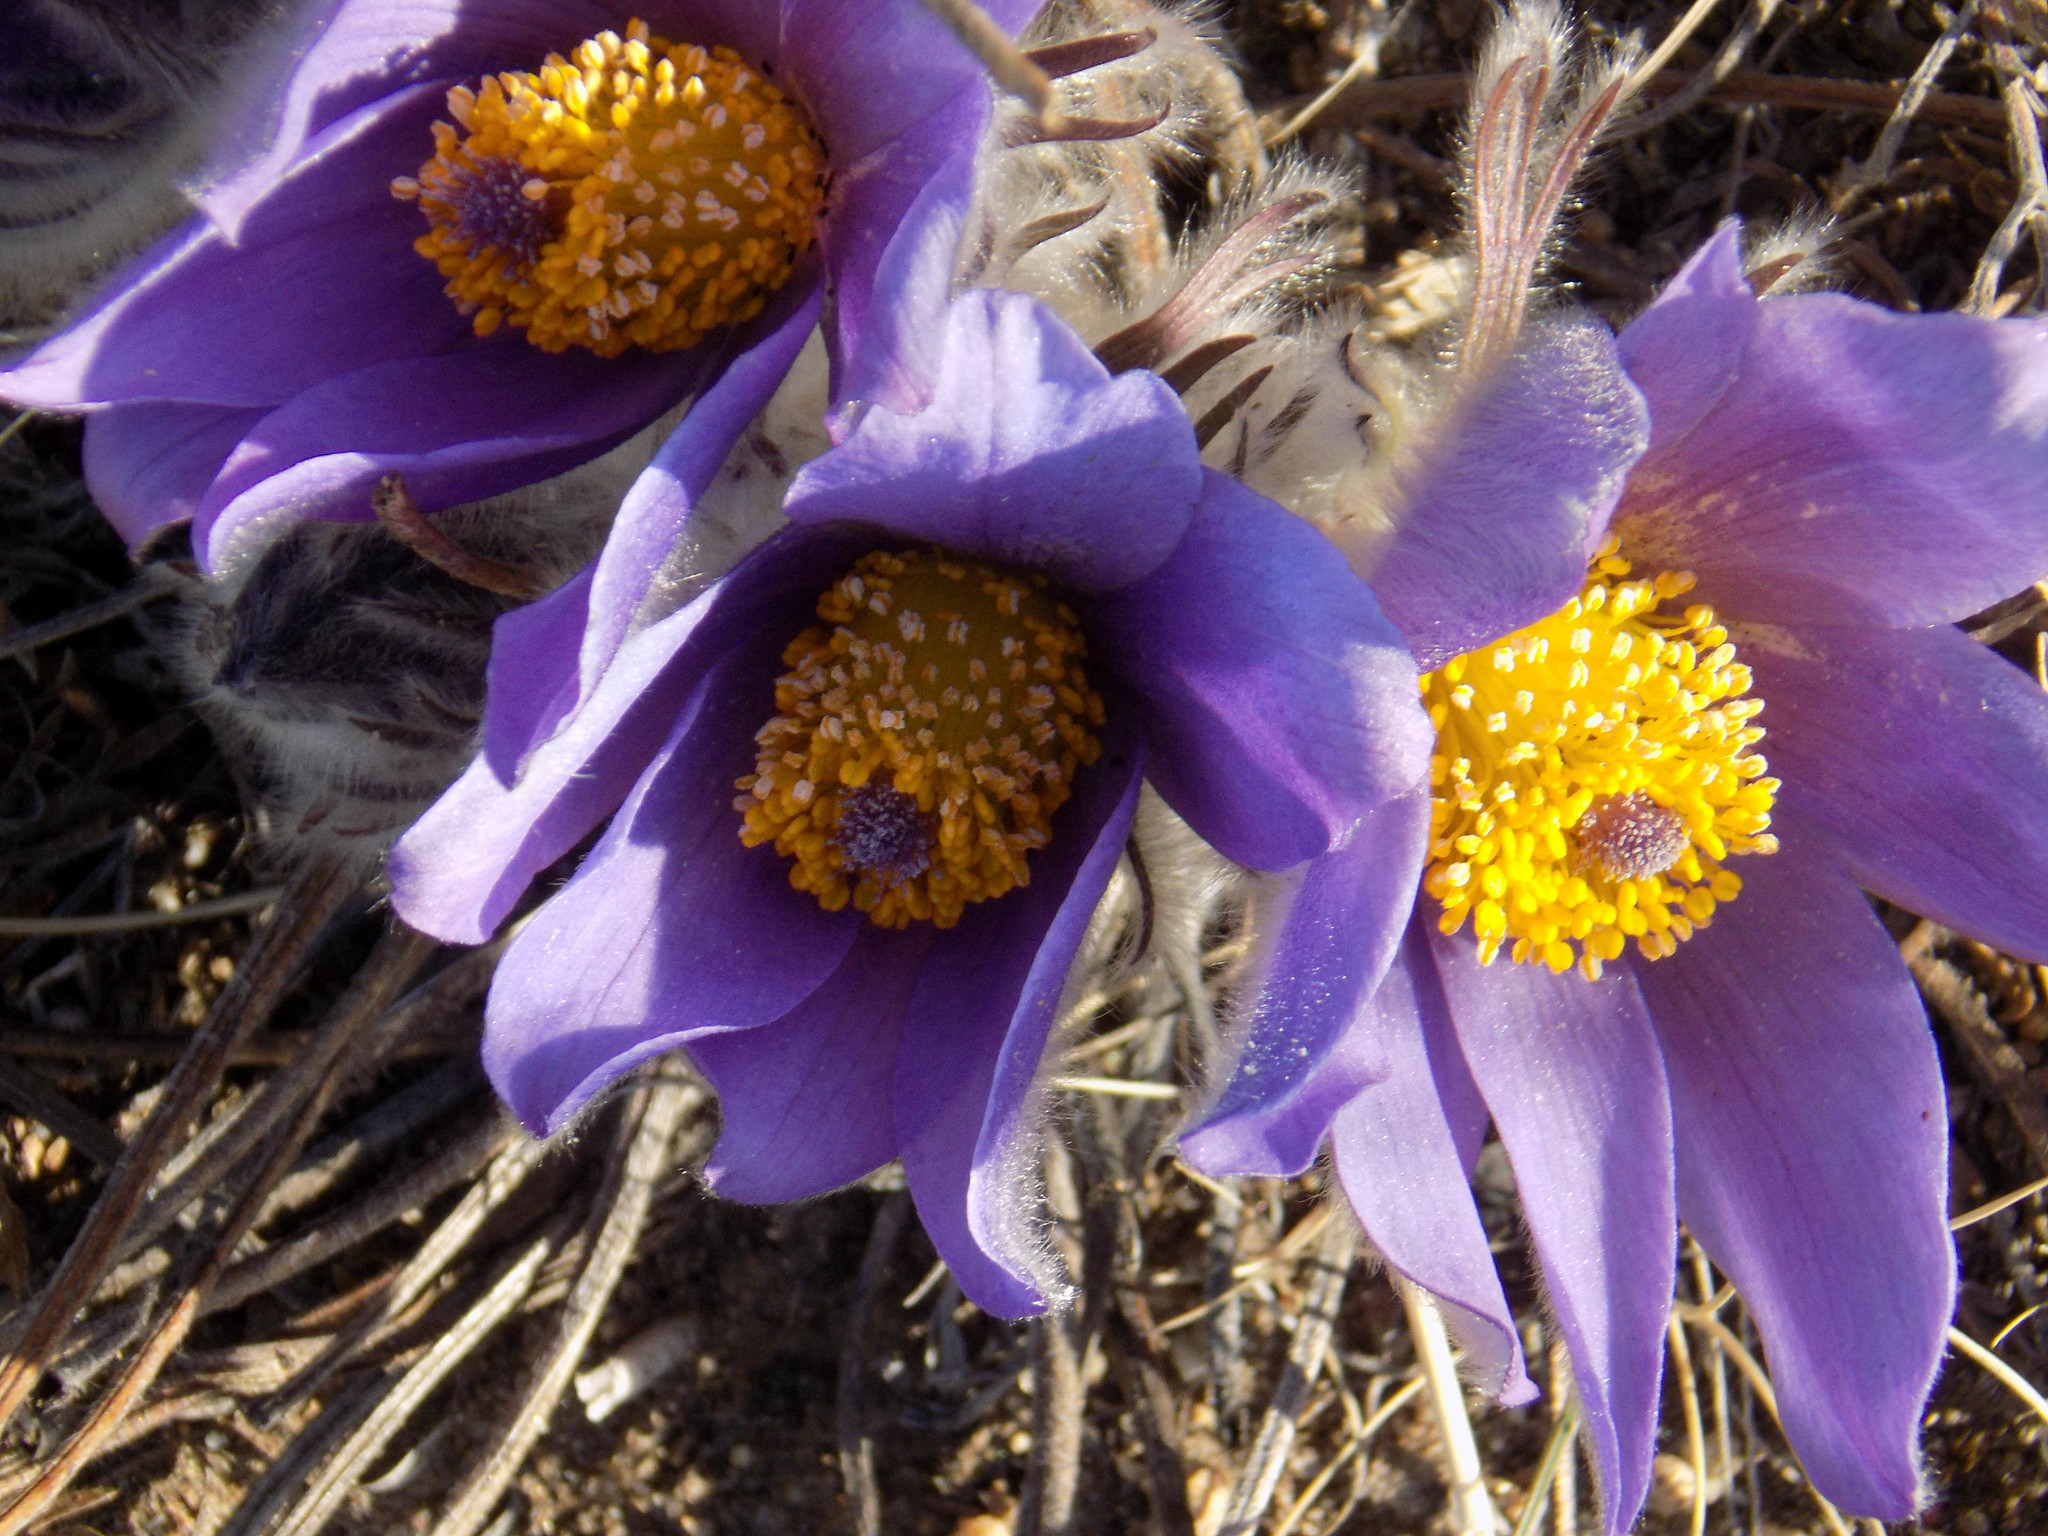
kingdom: Plantae
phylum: Tracheophyta
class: Magnoliopsida
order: Ranunculales
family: Ranunculaceae
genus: Pulsatilla
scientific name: Pulsatilla turczaninovii
